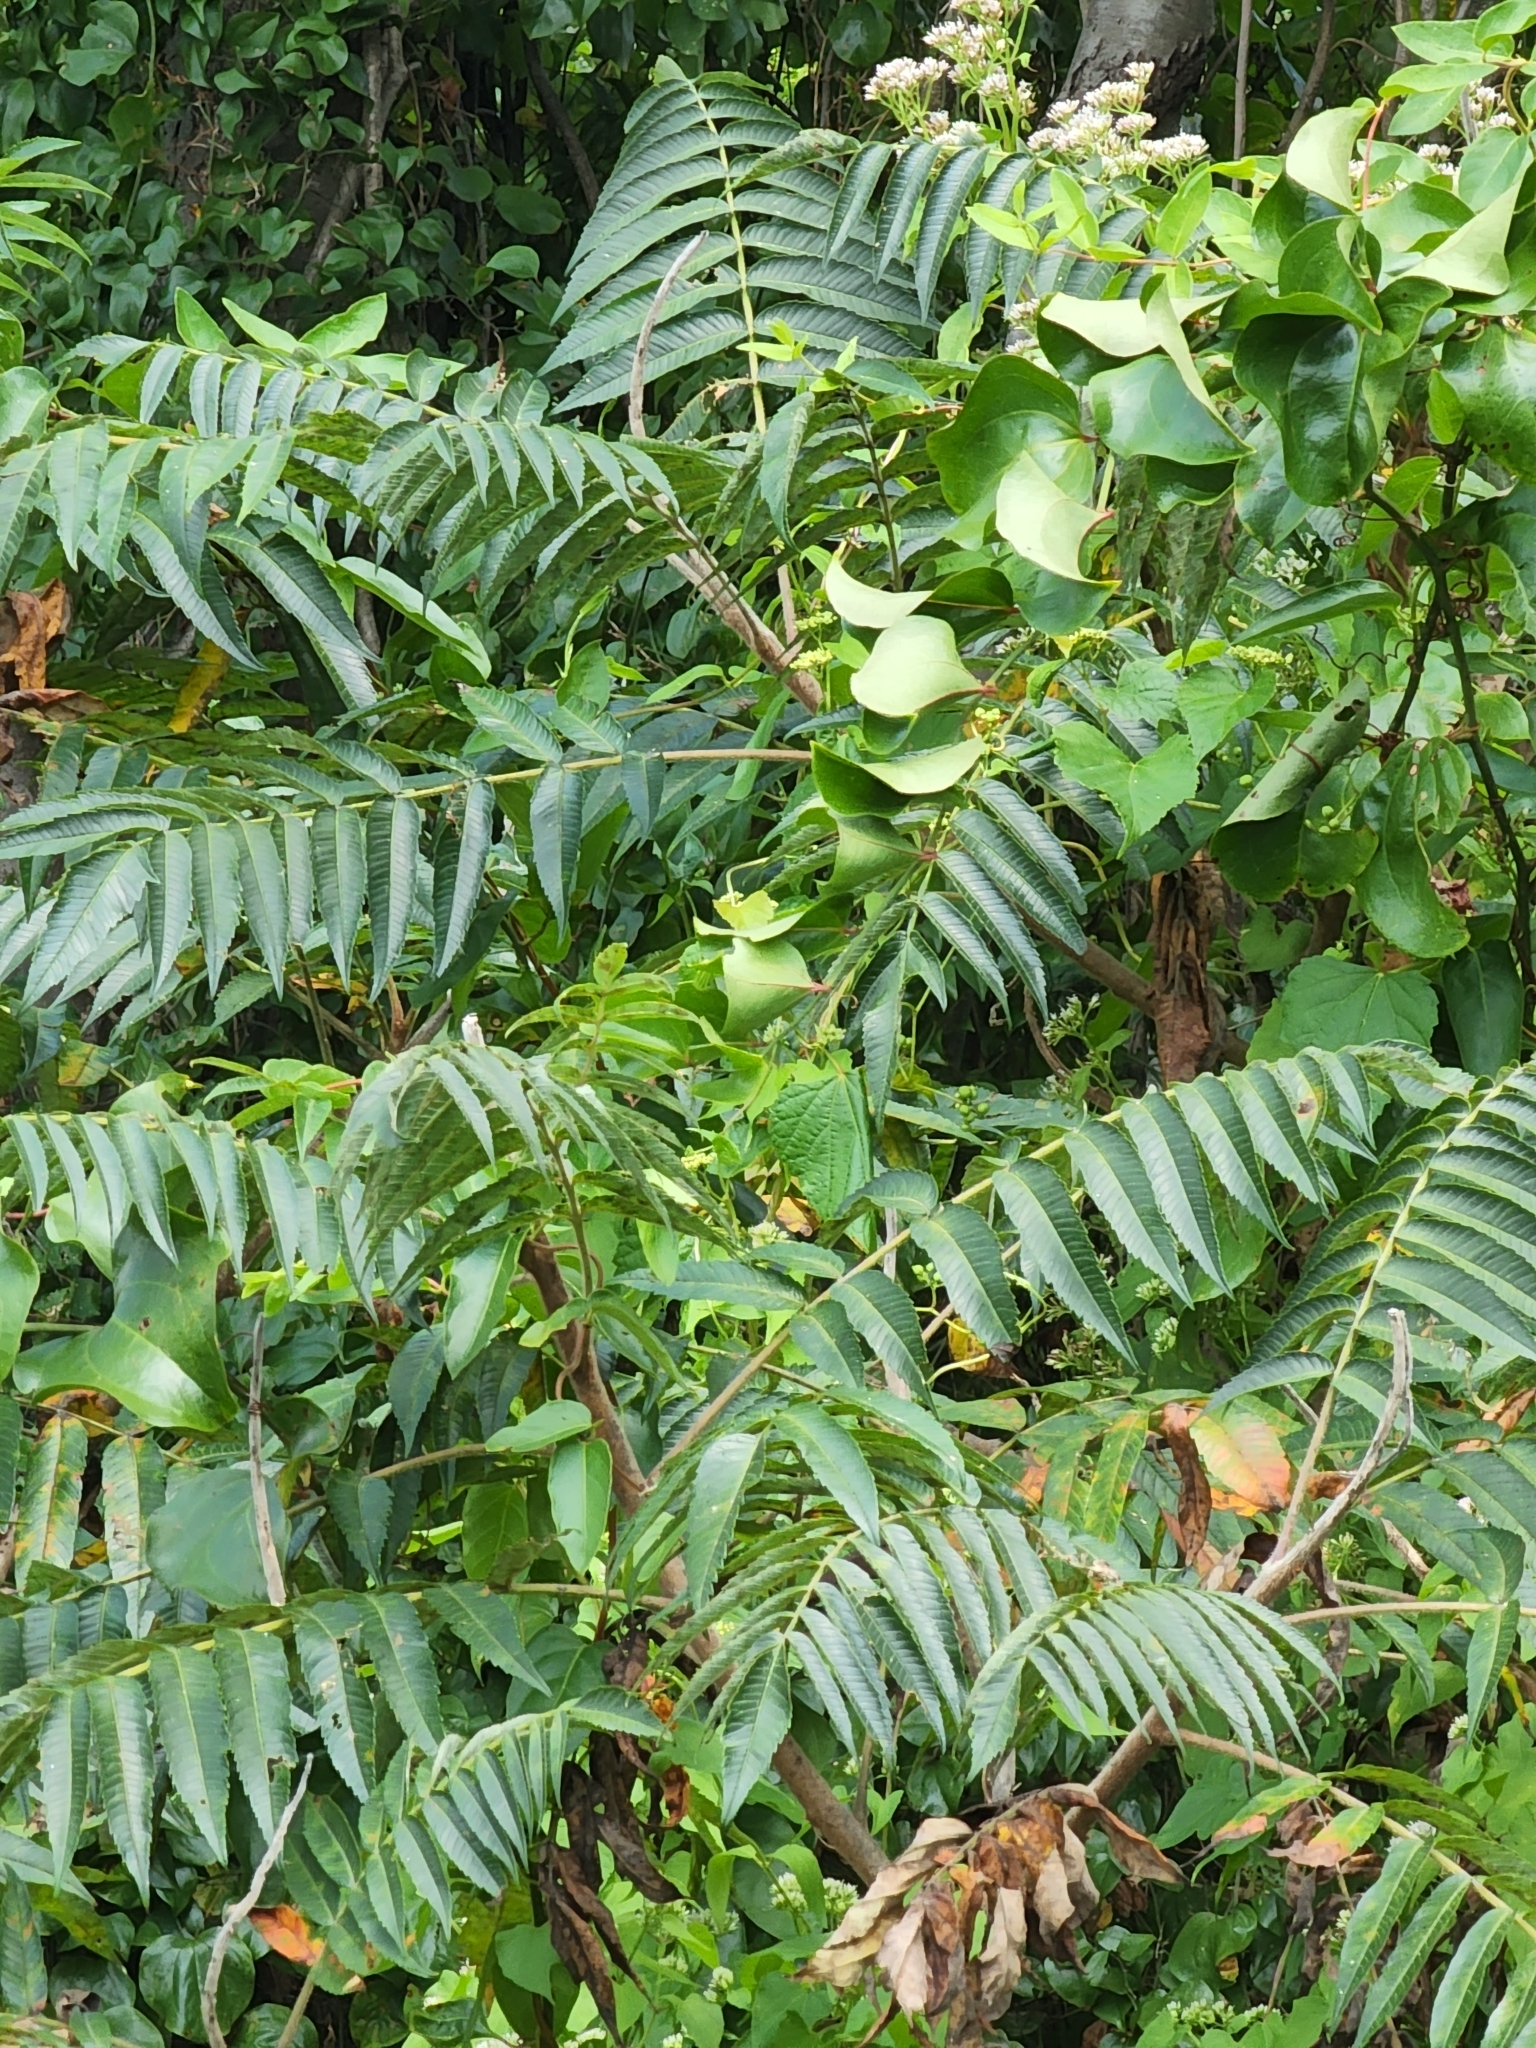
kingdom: Plantae
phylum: Tracheophyta
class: Magnoliopsida
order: Sapindales
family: Anacardiaceae
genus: Rhus
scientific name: Rhus typhina
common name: Staghorn sumac
